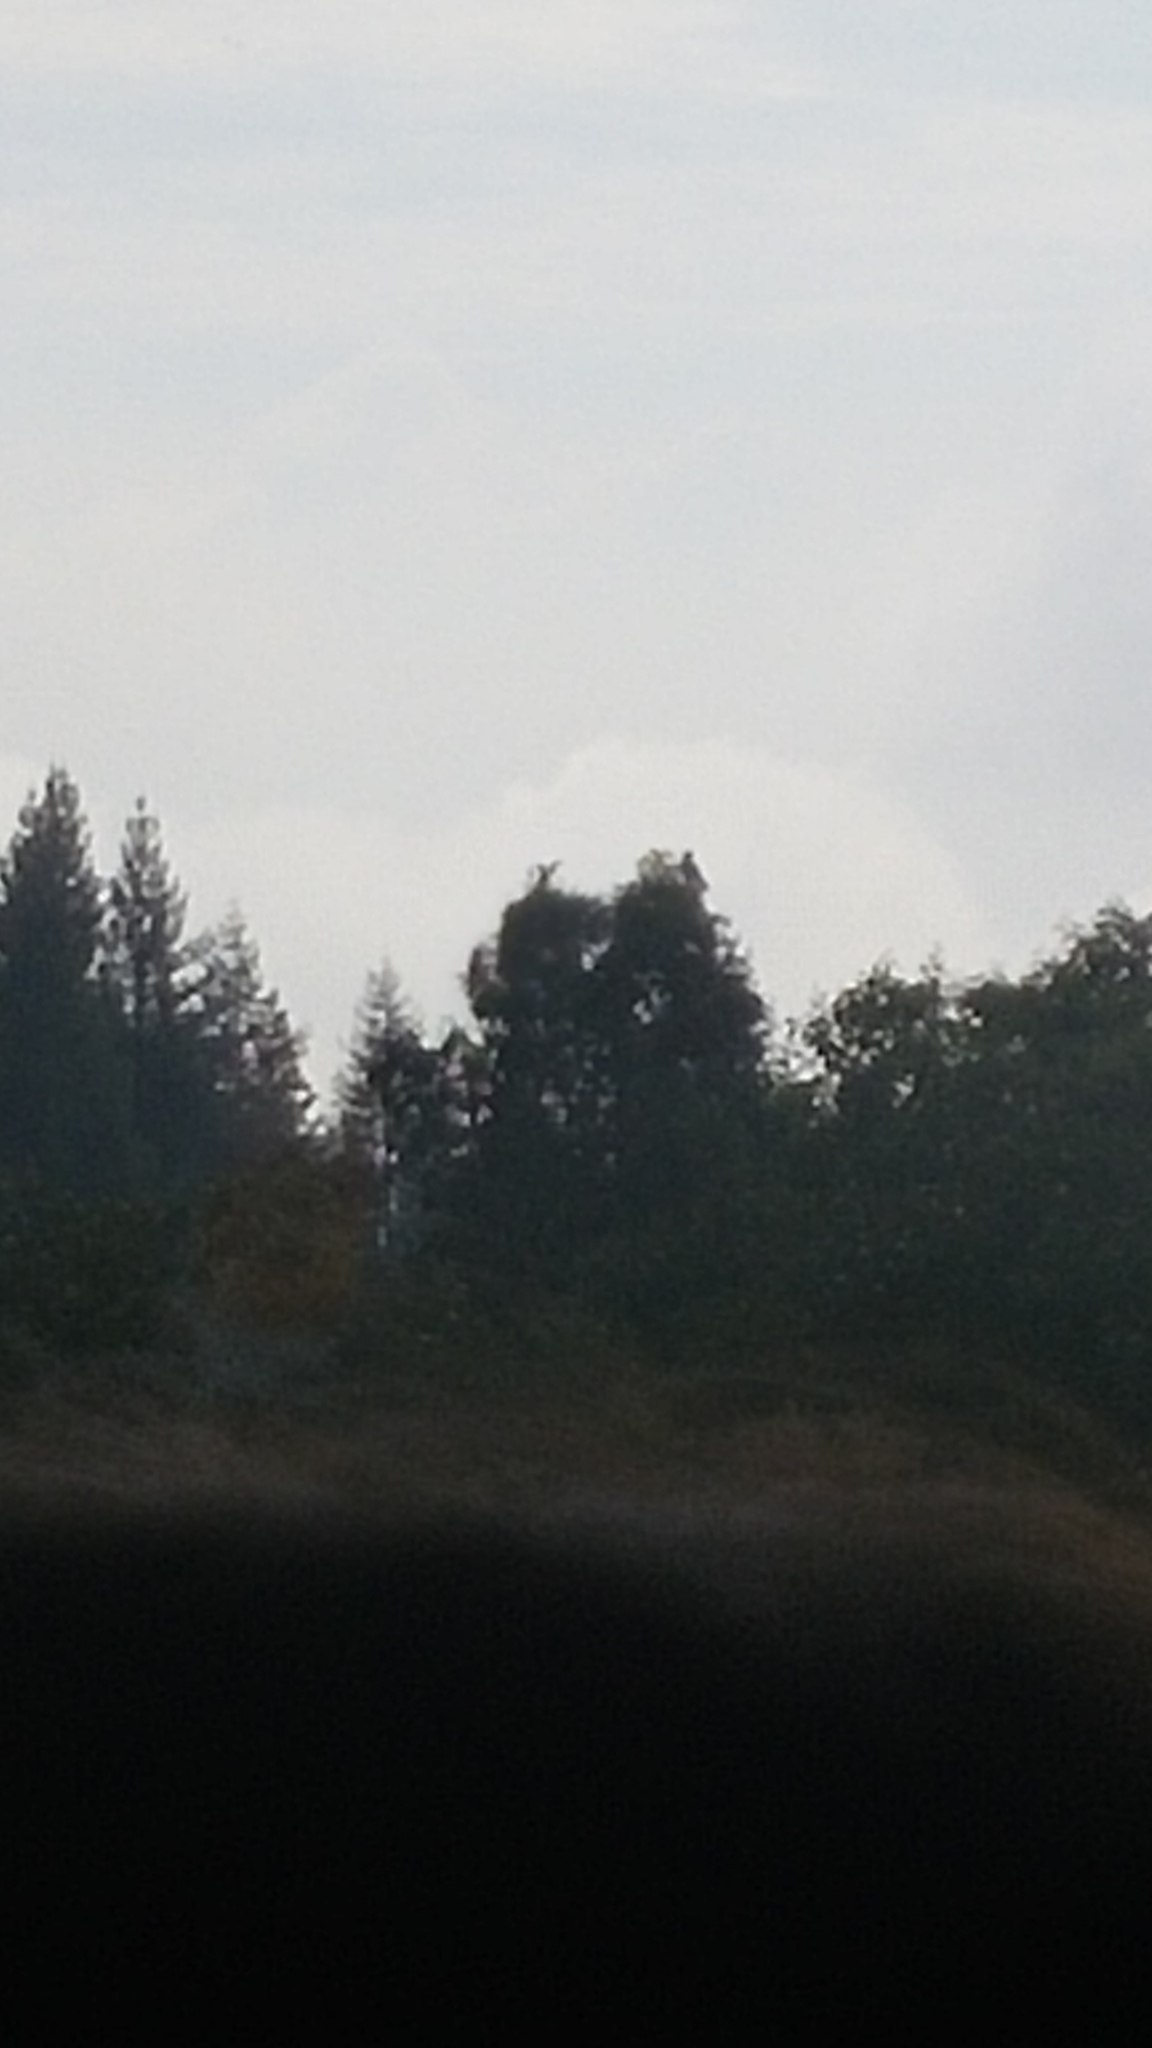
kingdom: Animalia
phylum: Chordata
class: Aves
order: Accipitriformes
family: Accipitridae
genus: Buteo
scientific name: Buteo solitarius
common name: Hawaiian hawk
